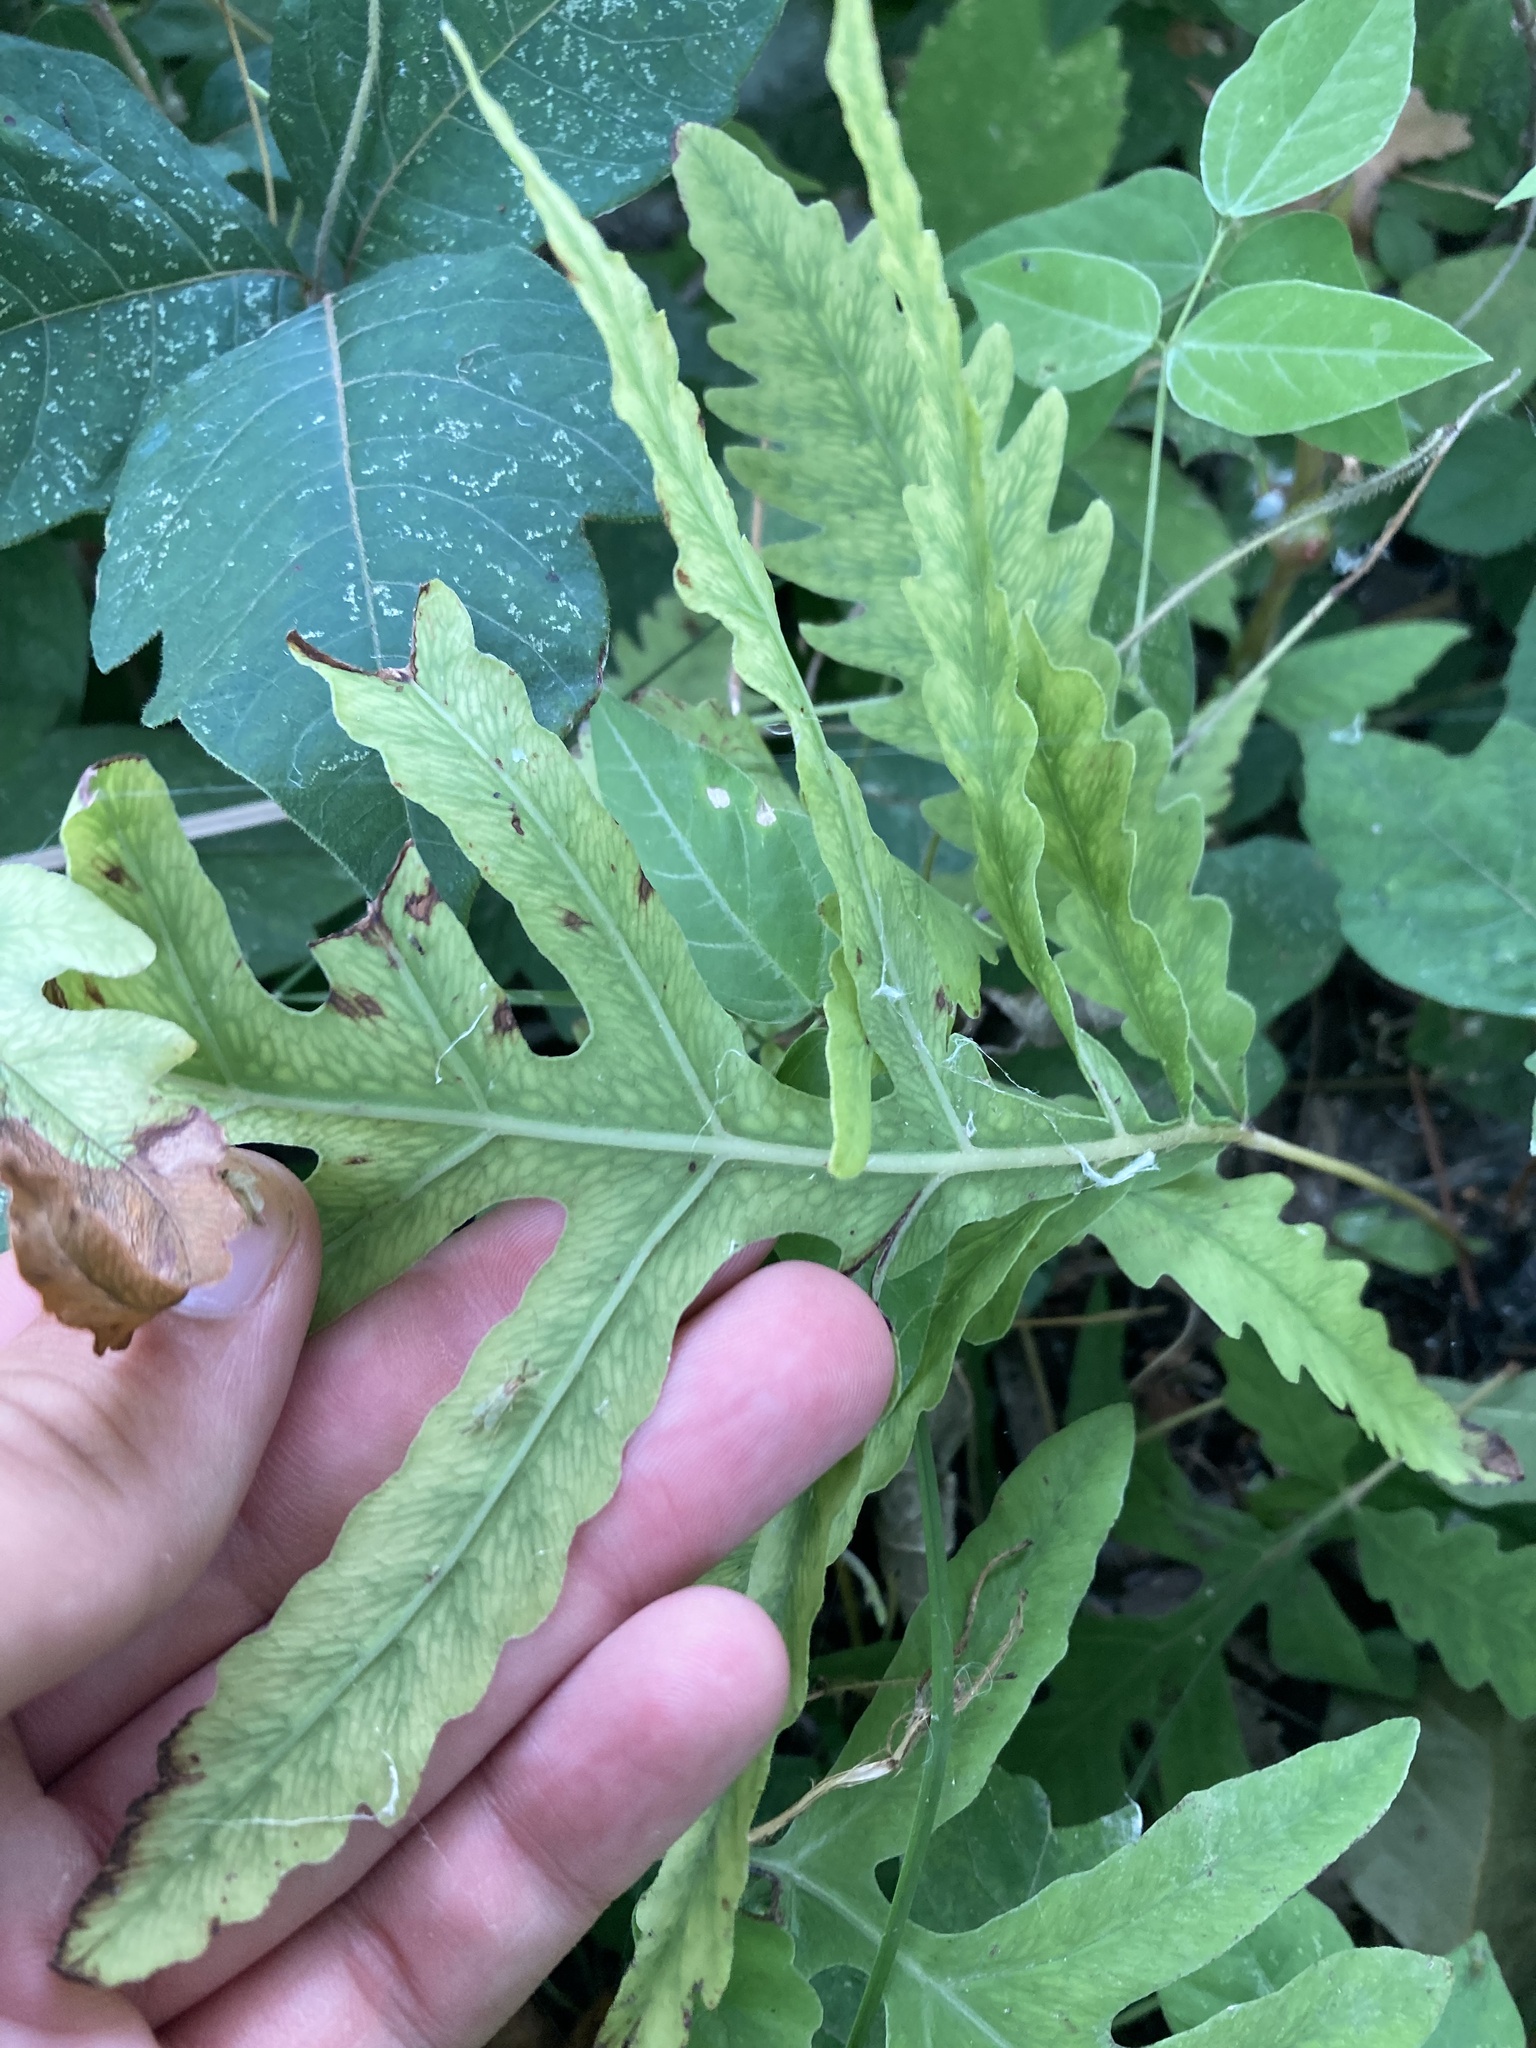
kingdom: Plantae
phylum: Tracheophyta
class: Polypodiopsida
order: Polypodiales
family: Onocleaceae
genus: Onoclea
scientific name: Onoclea sensibilis
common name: Sensitive fern
